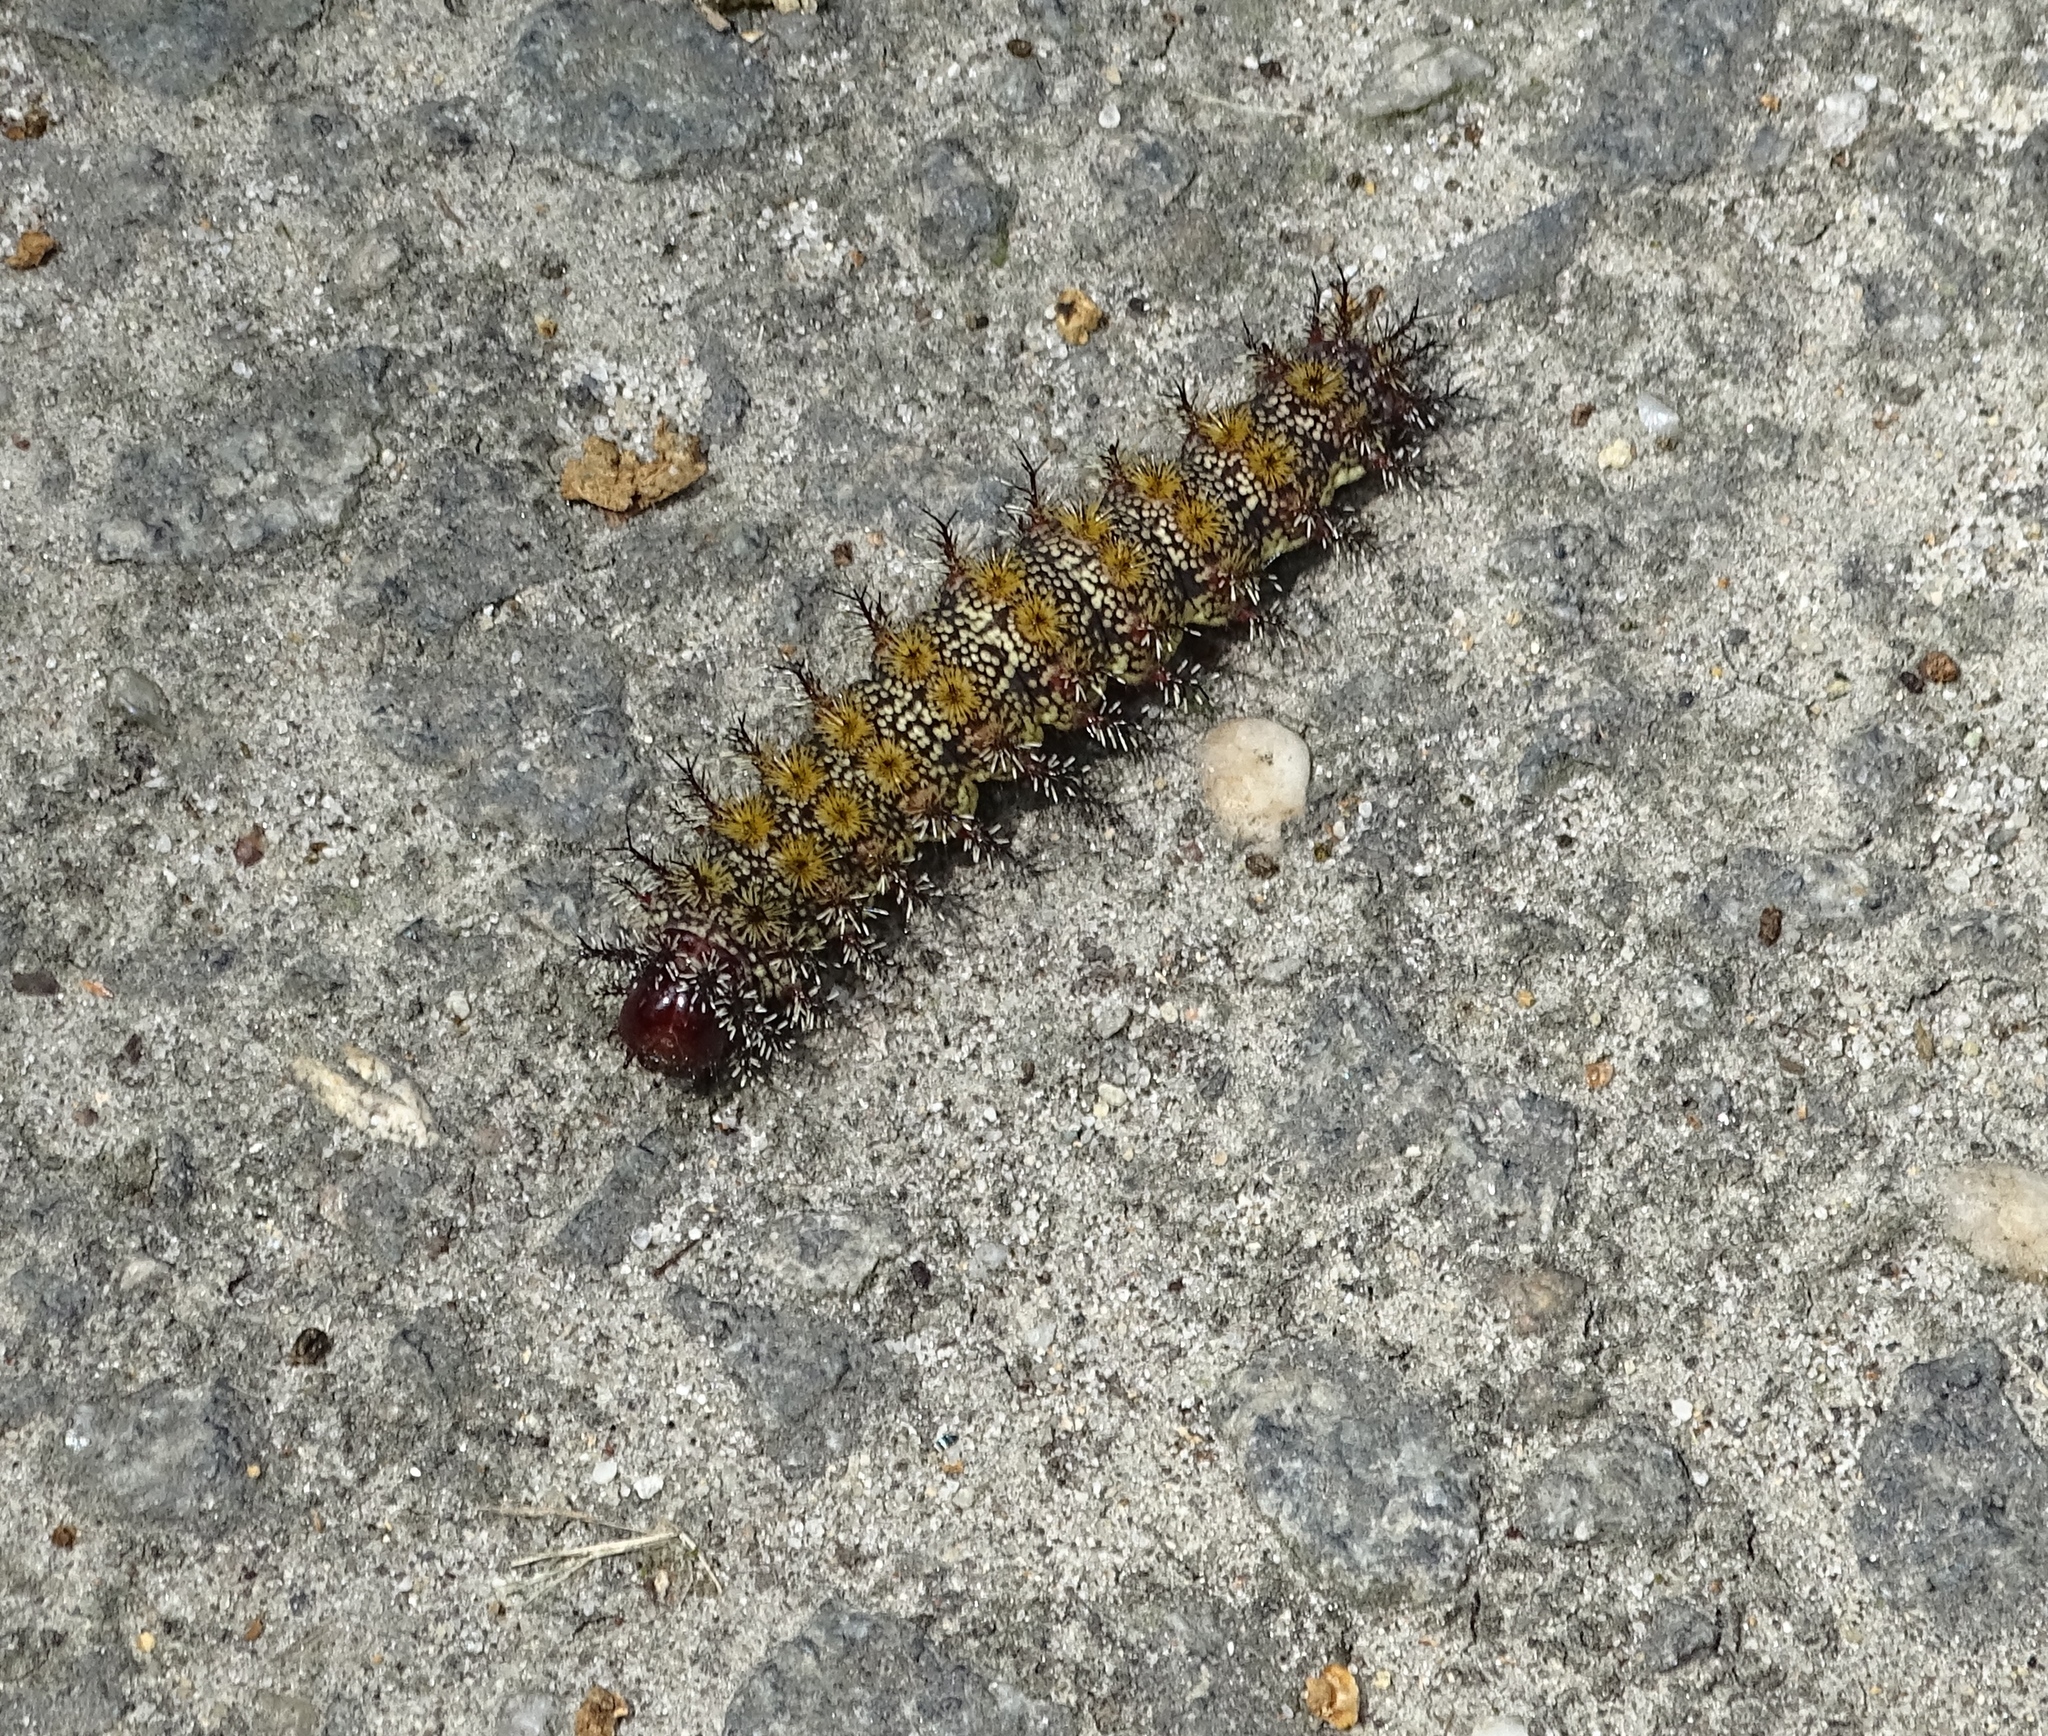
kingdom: Animalia
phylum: Arthropoda
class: Insecta
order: Lepidoptera
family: Saturniidae
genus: Hemileuca
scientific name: Hemileuca maia
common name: Eastern buckmoth
